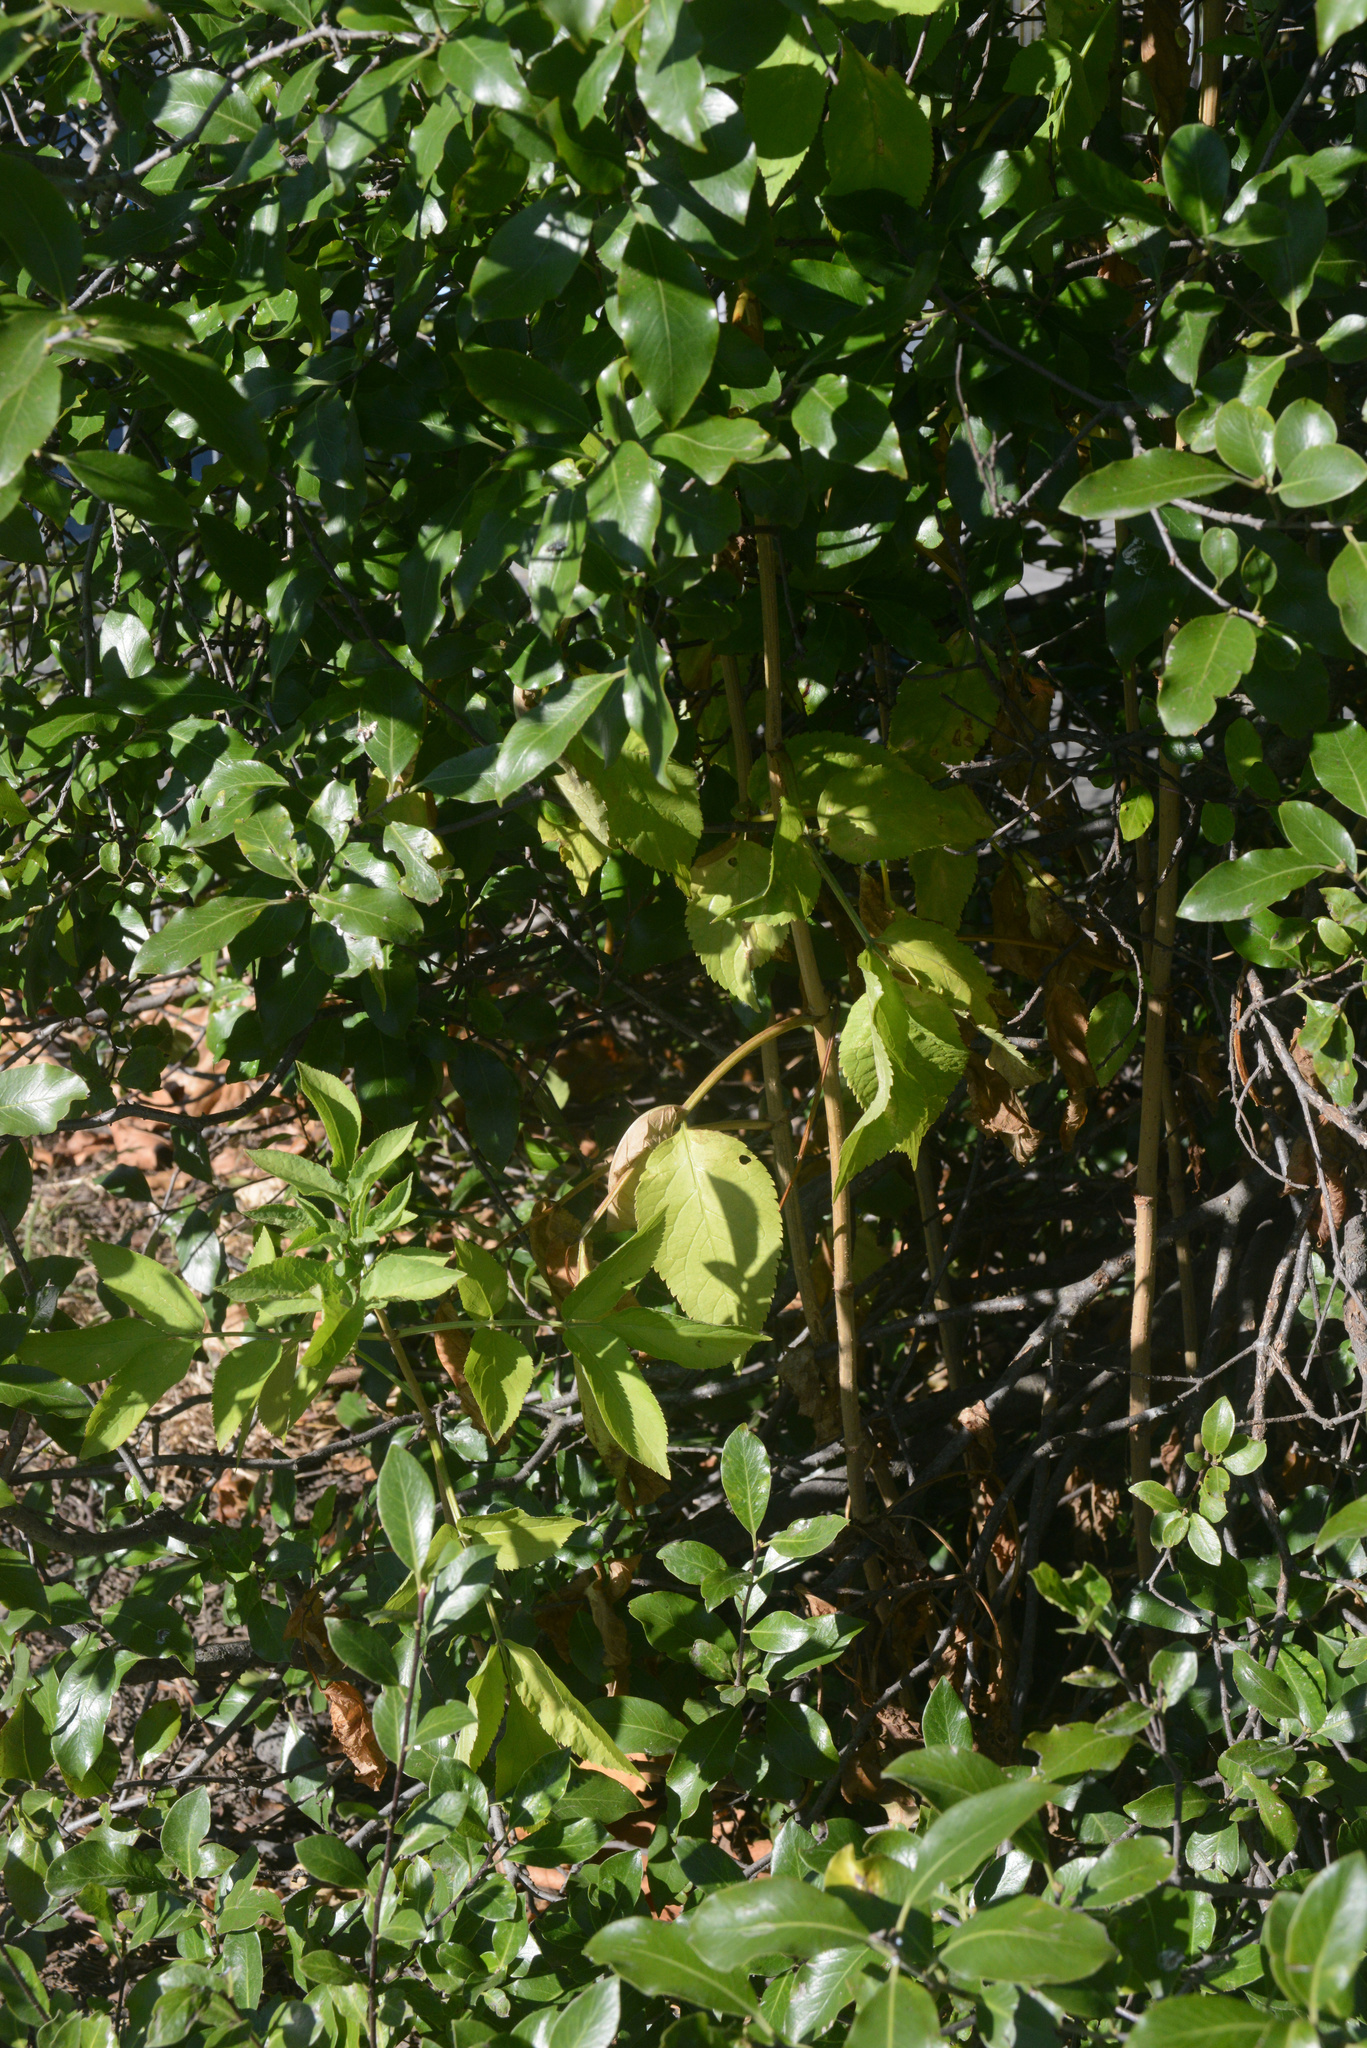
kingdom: Plantae
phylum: Tracheophyta
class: Magnoliopsida
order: Dipsacales
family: Viburnaceae
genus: Sambucus
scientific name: Sambucus nigra
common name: Elder
